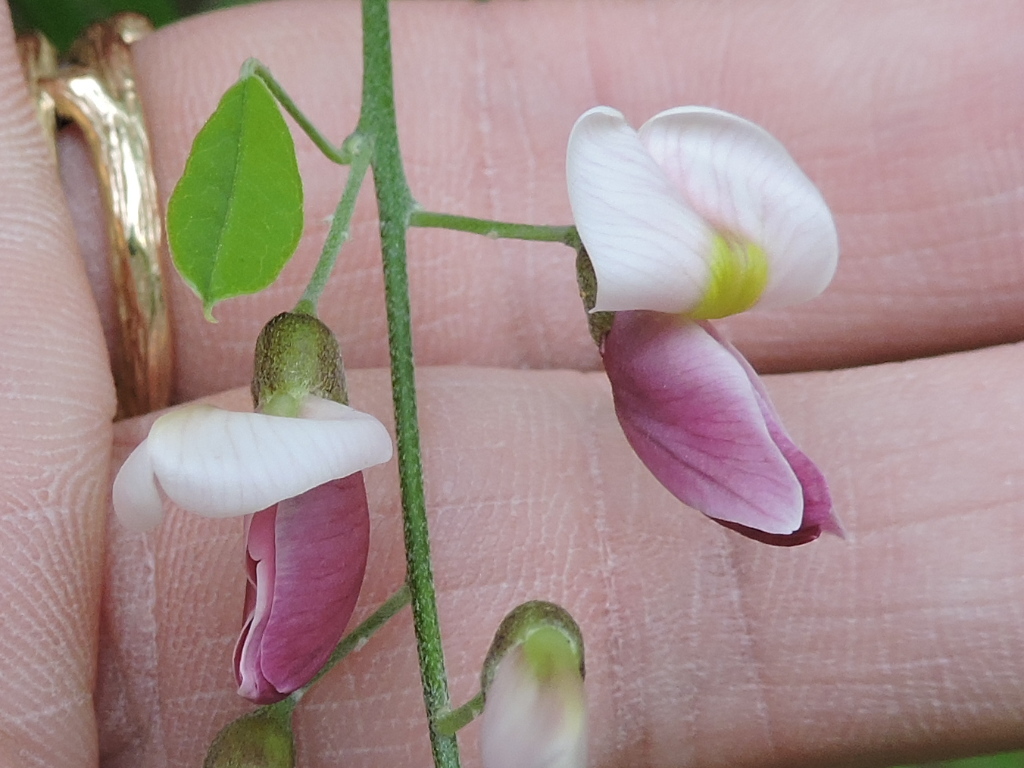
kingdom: Plantae
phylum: Tracheophyta
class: Magnoliopsida
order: Fabales
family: Fabaceae
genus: Styphnolobium
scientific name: Styphnolobium affine
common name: Texas sophora
